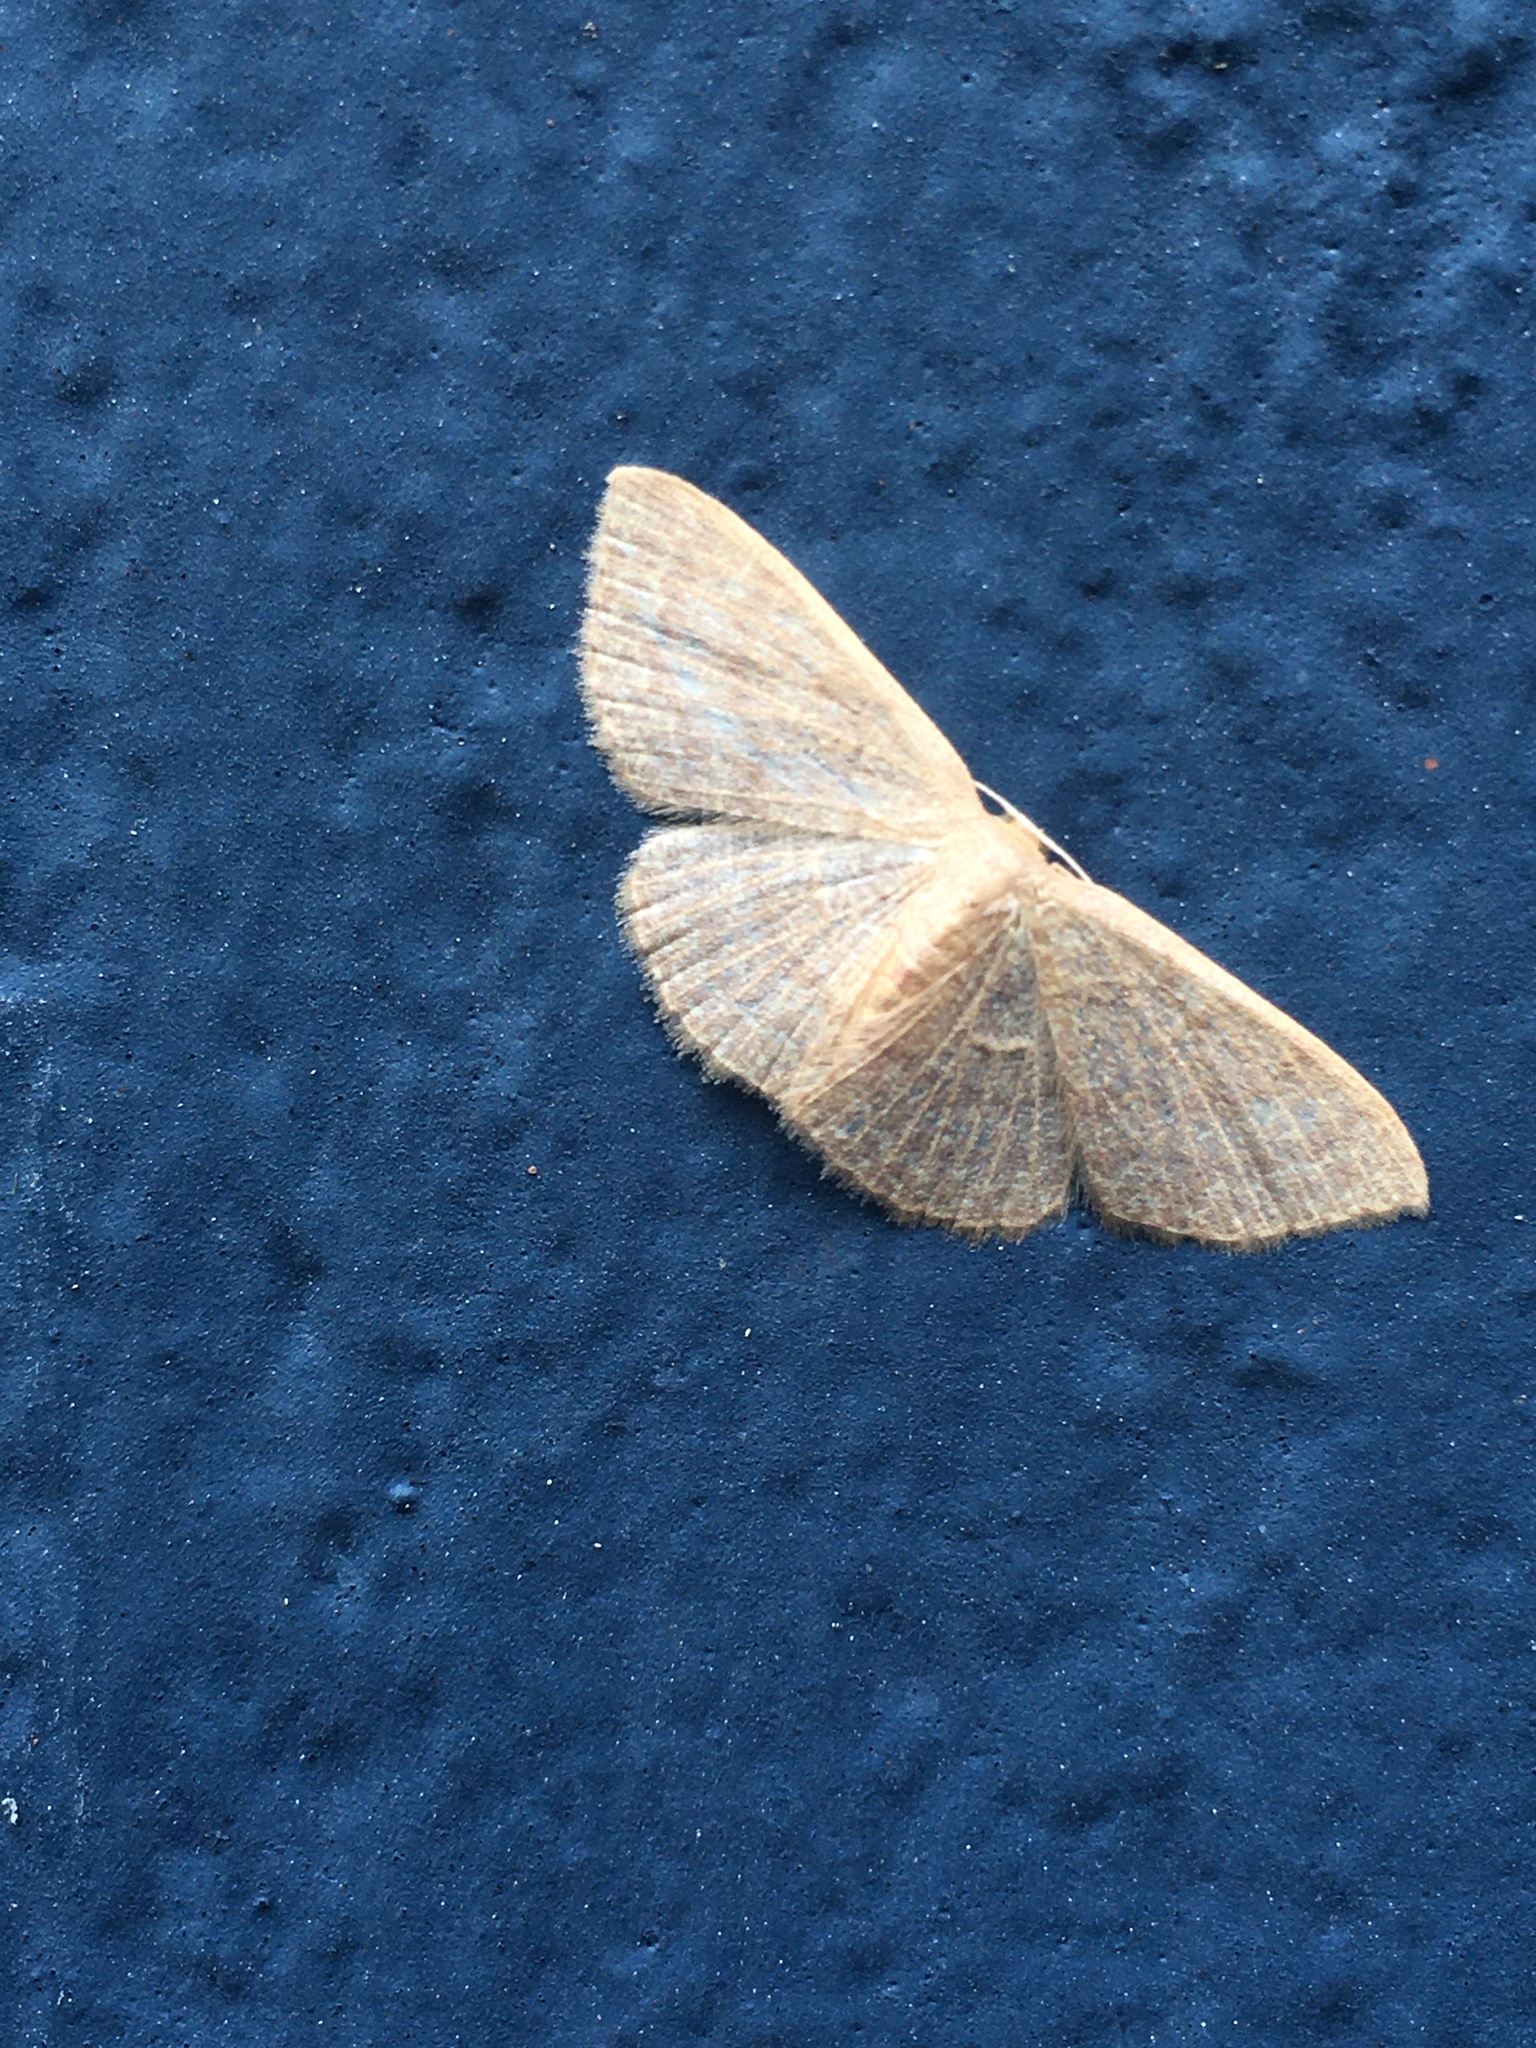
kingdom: Animalia
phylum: Arthropoda
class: Insecta
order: Lepidoptera
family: Geometridae
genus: Pleuroprucha
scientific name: Pleuroprucha insulsaria
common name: Common tan wave
